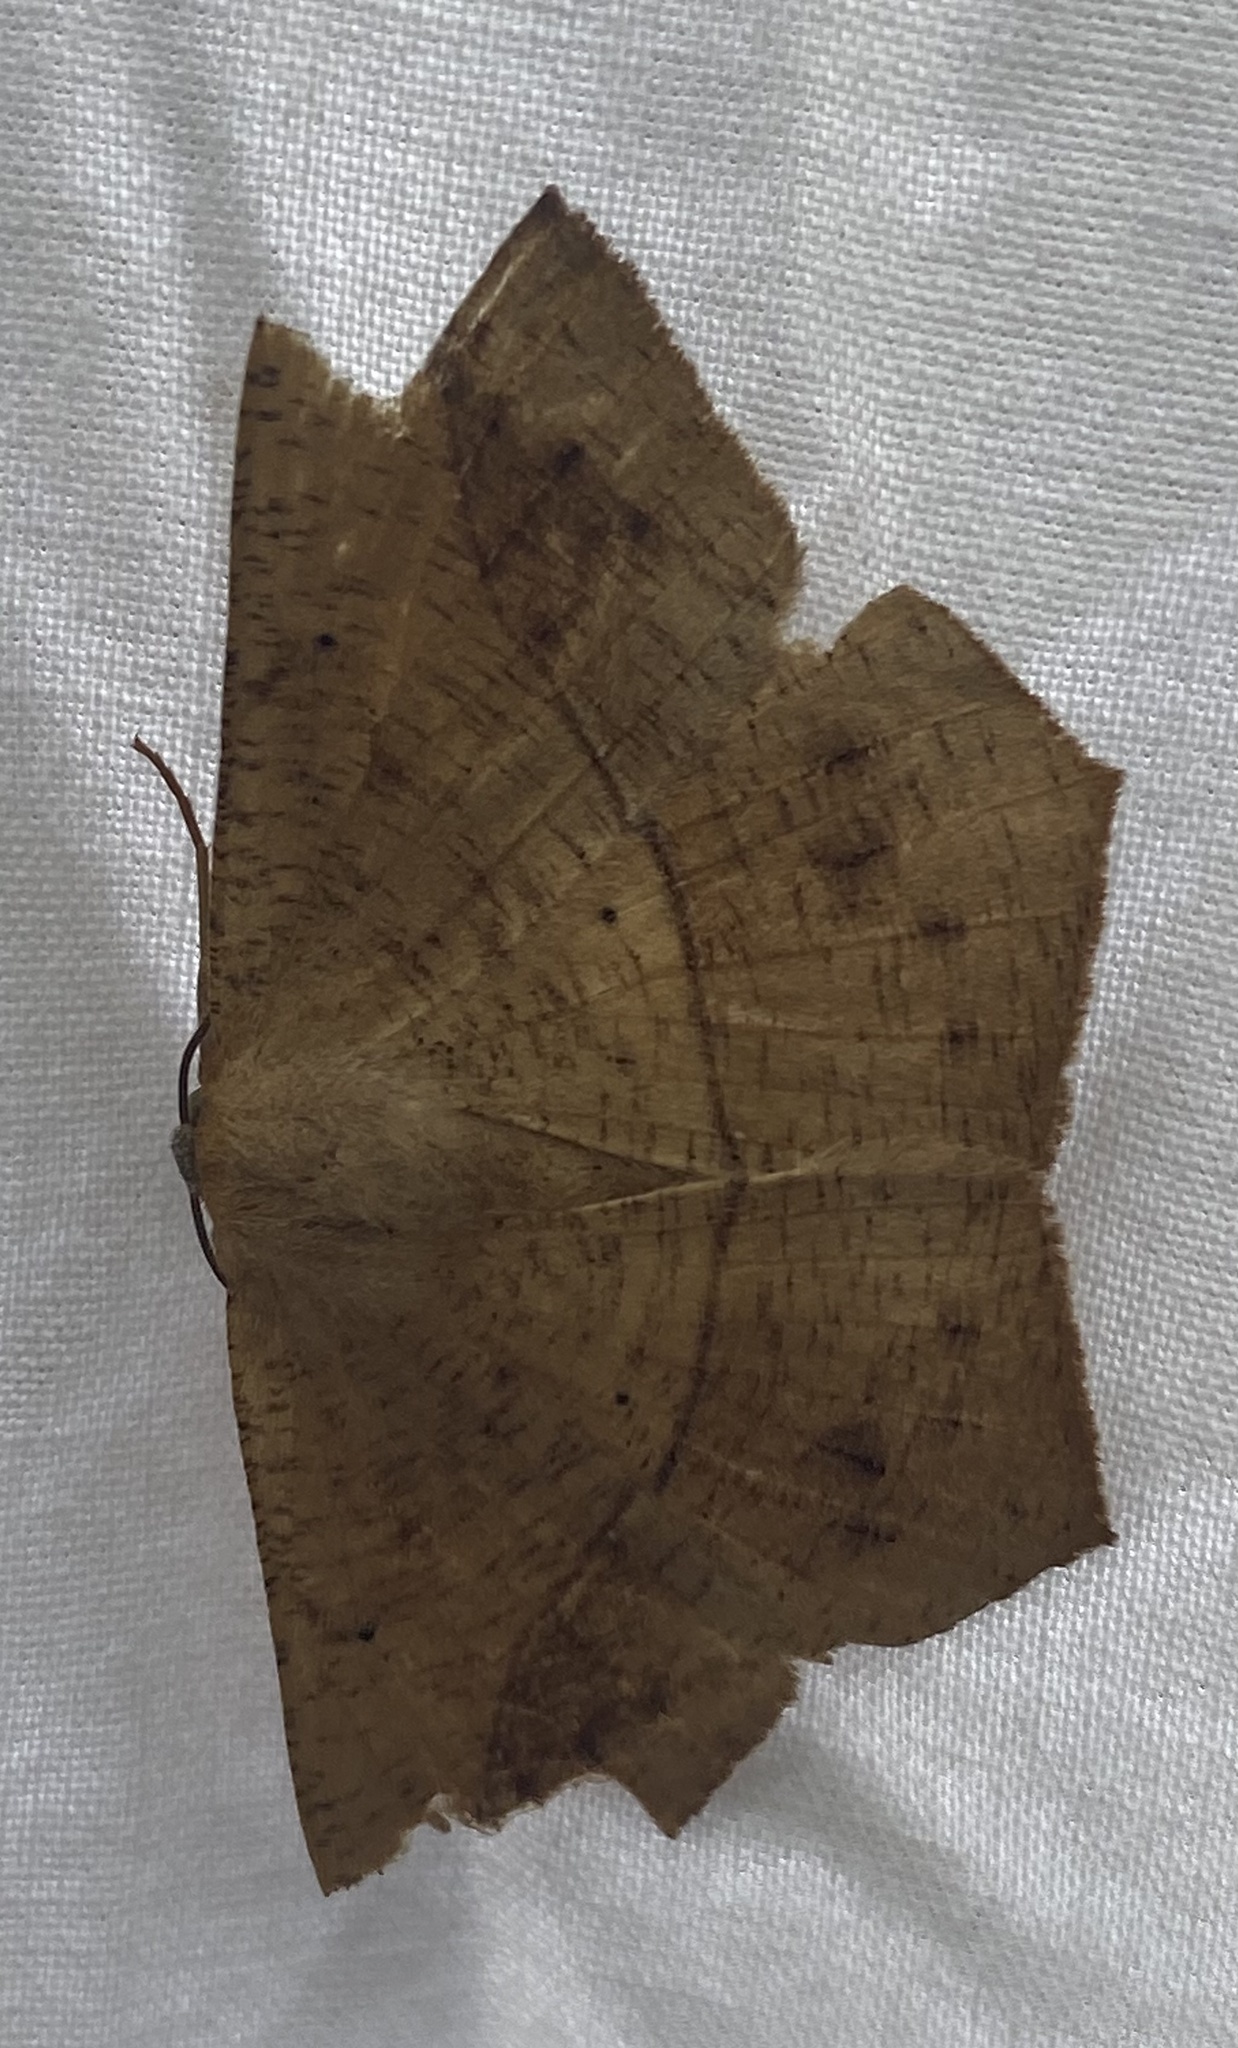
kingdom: Animalia
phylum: Arthropoda
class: Insecta
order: Lepidoptera
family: Geometridae
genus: Prochoerodes
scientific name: Prochoerodes lineola
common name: Large maple spanworm
